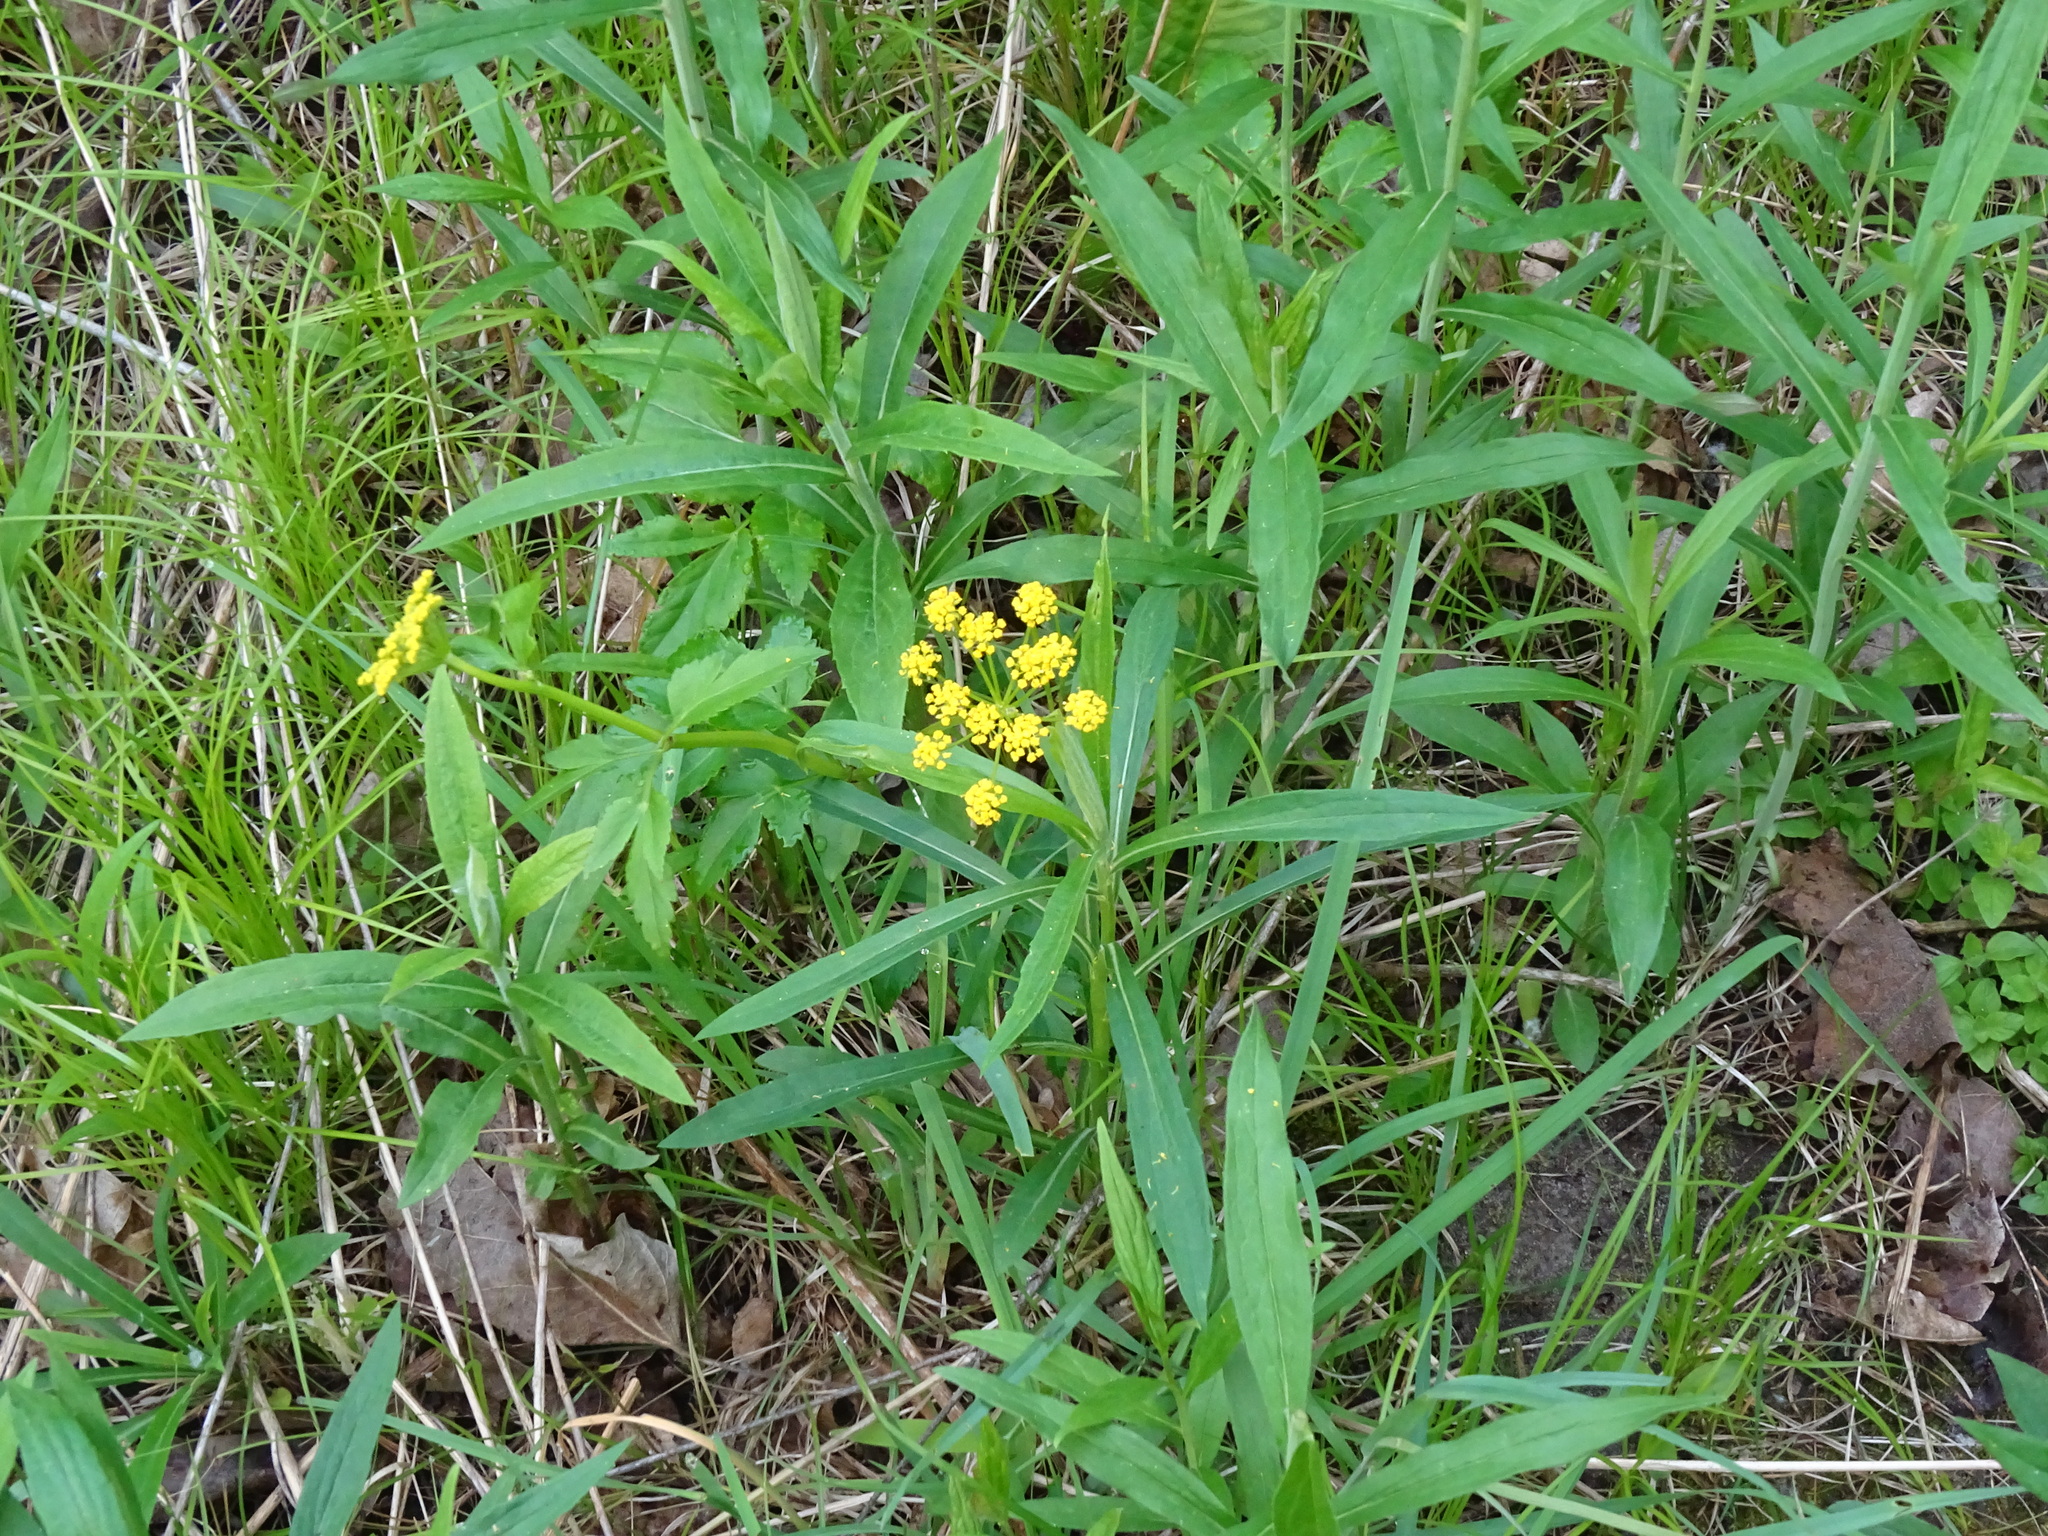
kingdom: Plantae
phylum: Tracheophyta
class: Magnoliopsida
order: Apiales
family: Apiaceae
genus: Zizia
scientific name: Zizia aurea
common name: Golden alexanders
